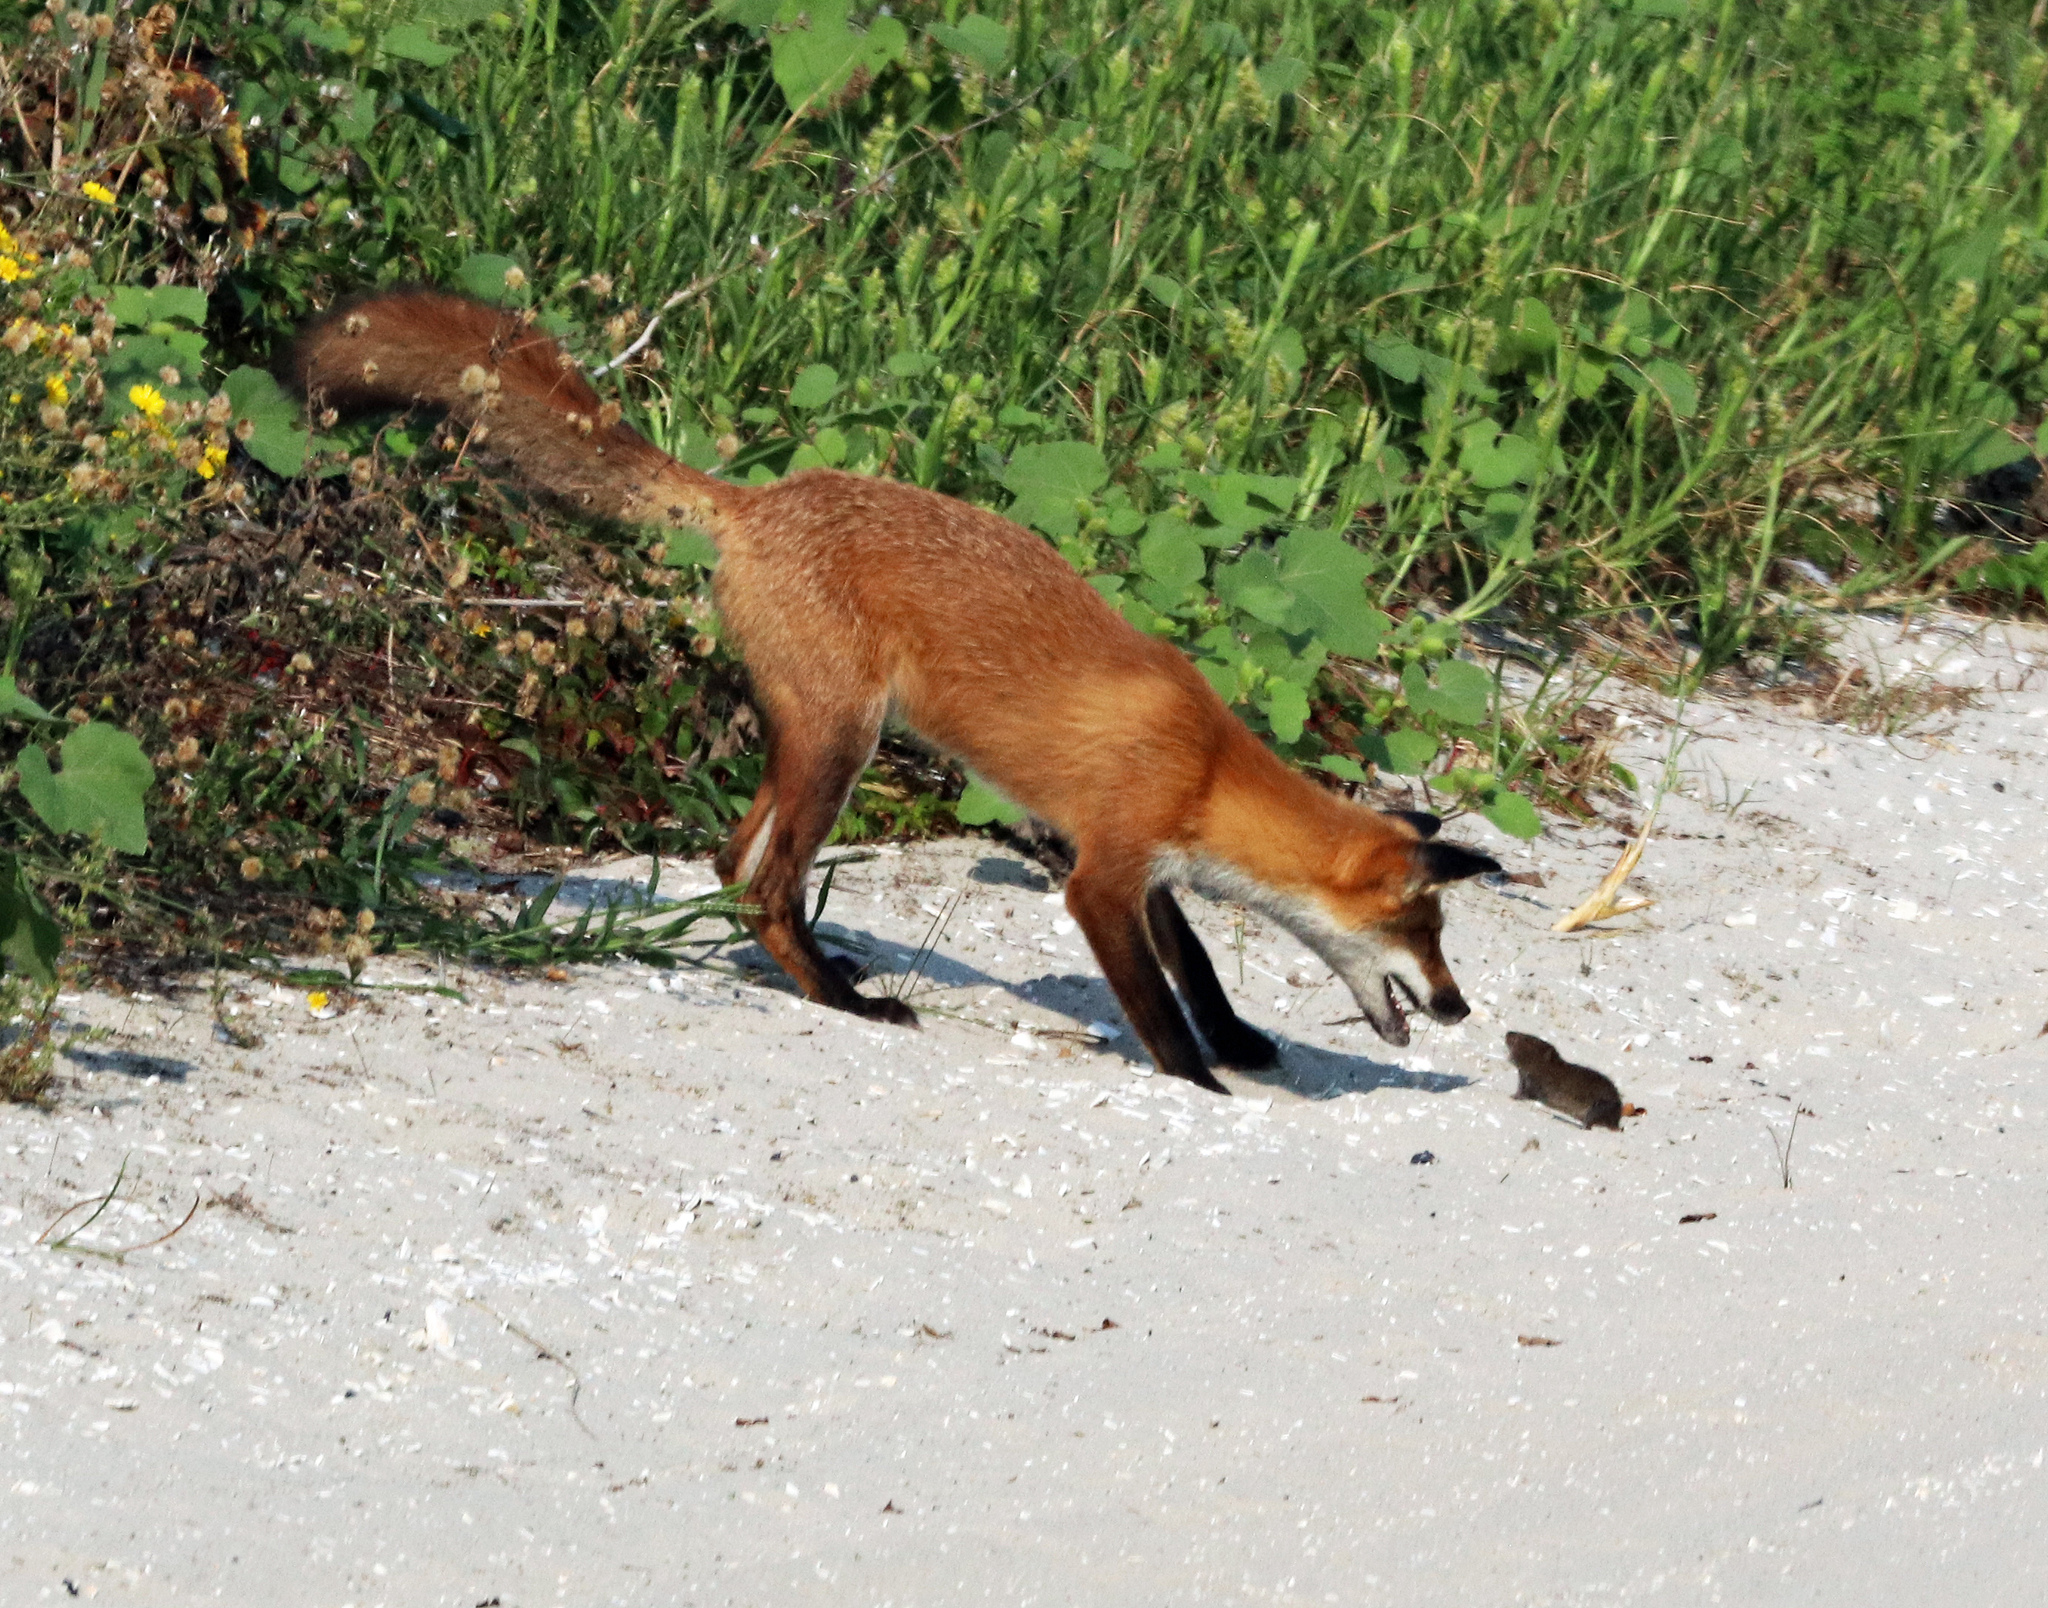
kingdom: Animalia
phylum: Chordata
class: Mammalia
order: Rodentia
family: Cricetidae
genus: Microtus
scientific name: Microtus pennsylvanicus
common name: Meadow vole
